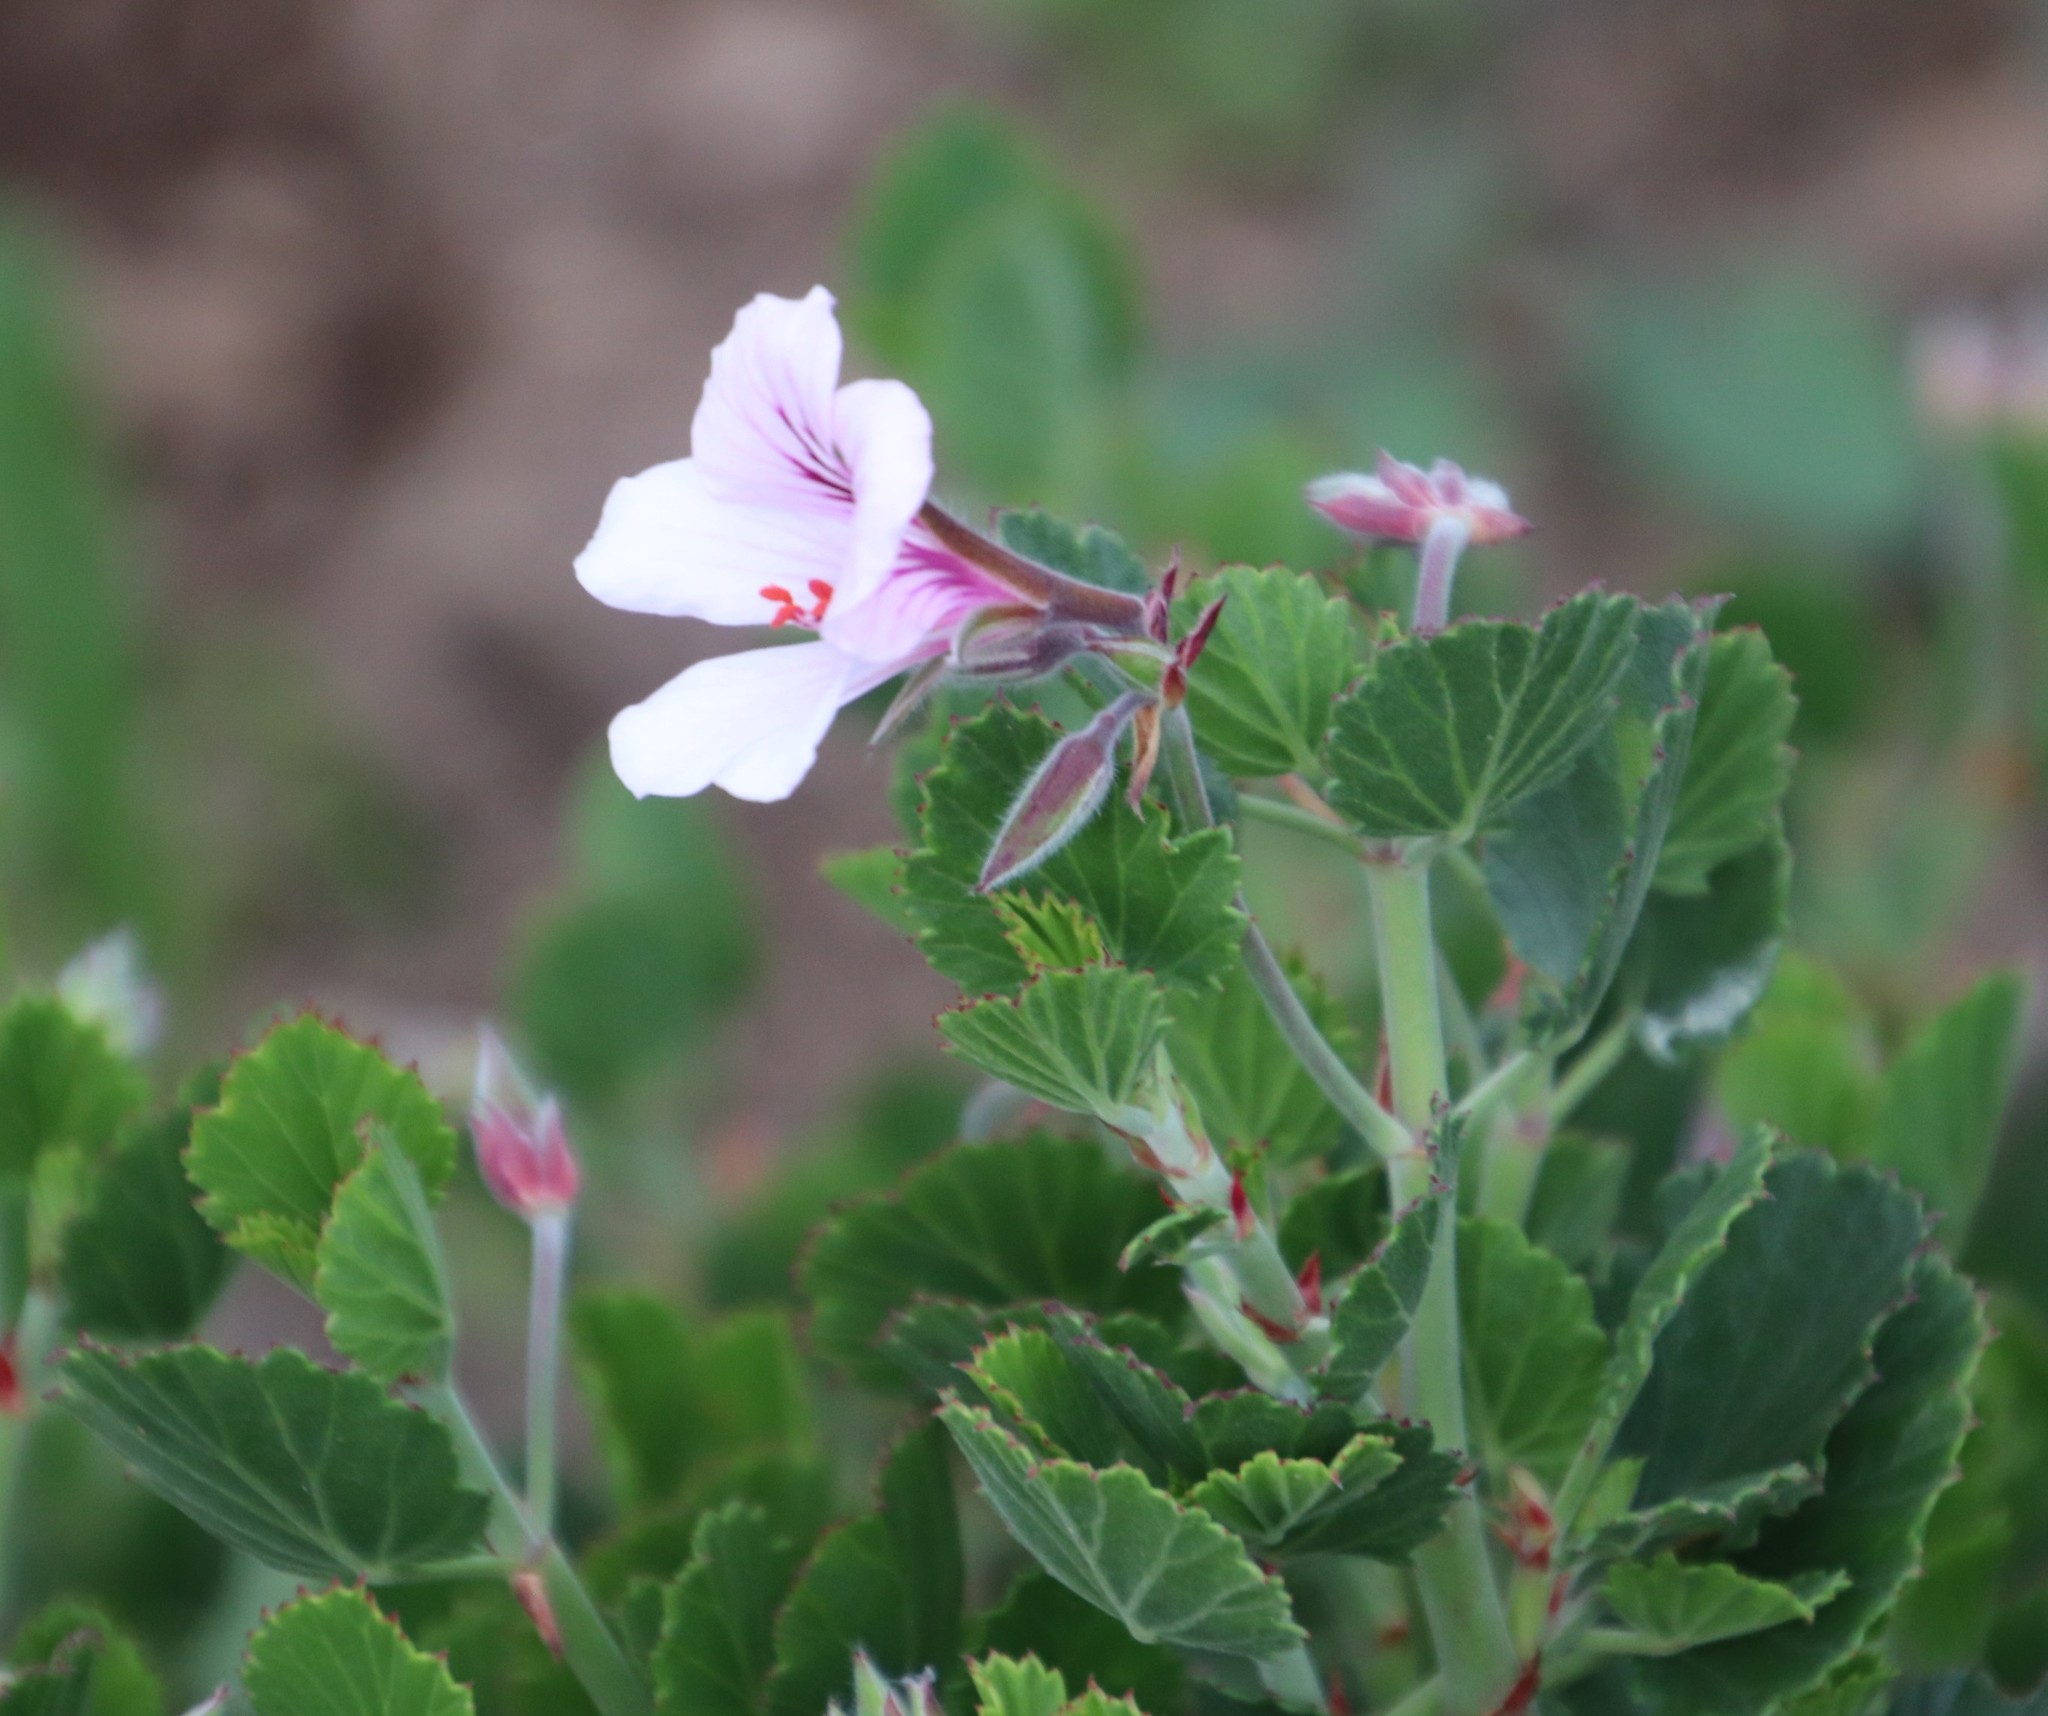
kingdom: Plantae
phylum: Tracheophyta
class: Magnoliopsida
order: Geraniales
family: Geraniaceae
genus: Pelargonium
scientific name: Pelargonium betulinum
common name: Birch-leaf pelargonium
